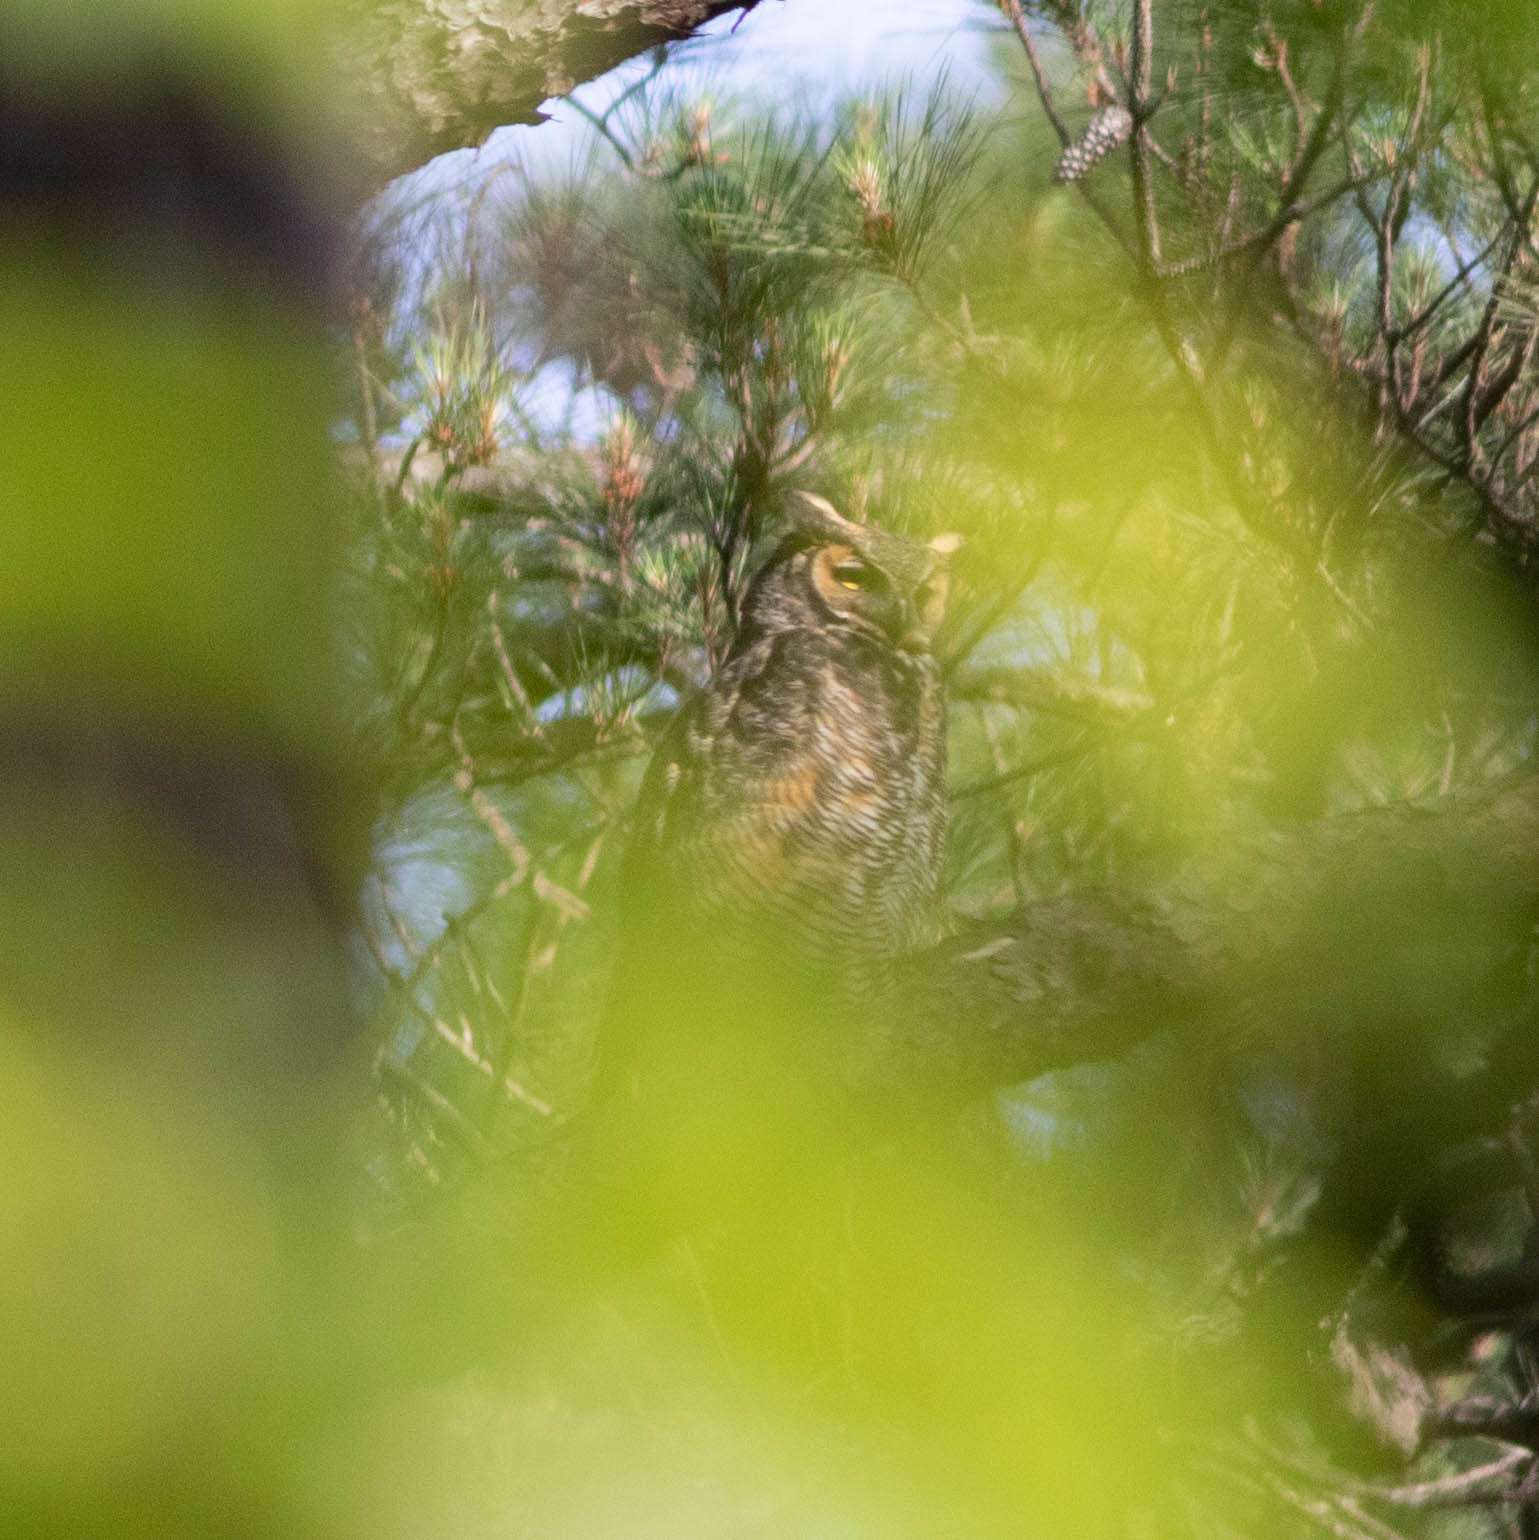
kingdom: Animalia
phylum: Chordata
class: Aves
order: Strigiformes
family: Strigidae
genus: Bubo
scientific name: Bubo virginianus
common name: Great horned owl
